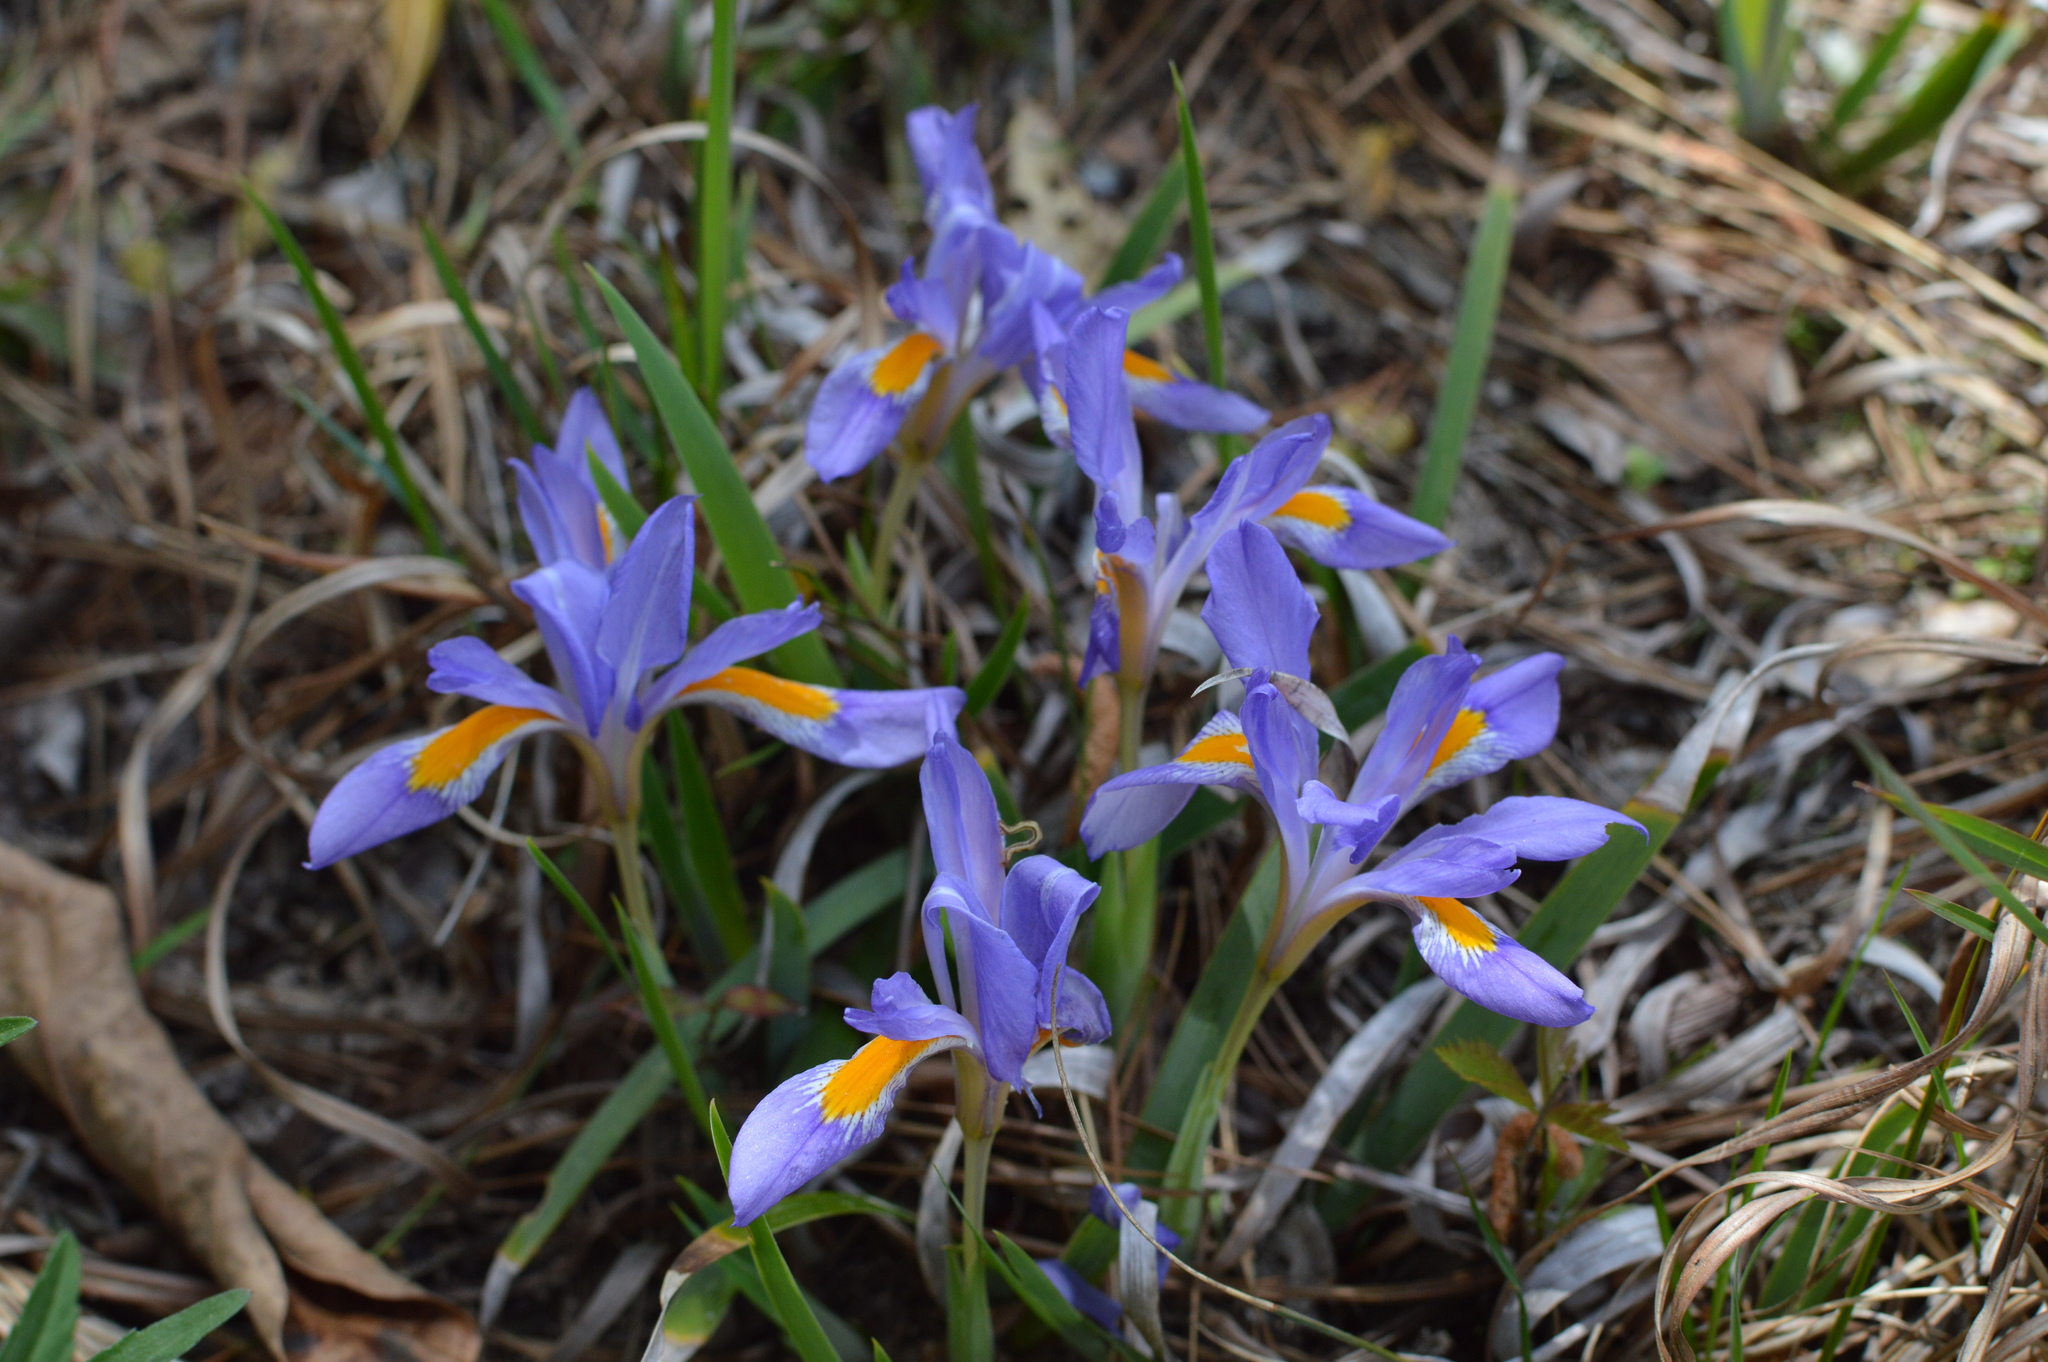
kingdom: Plantae
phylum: Tracheophyta
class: Liliopsida
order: Asparagales
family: Iridaceae
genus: Iris
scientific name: Iris verna
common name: Dwarf iris
